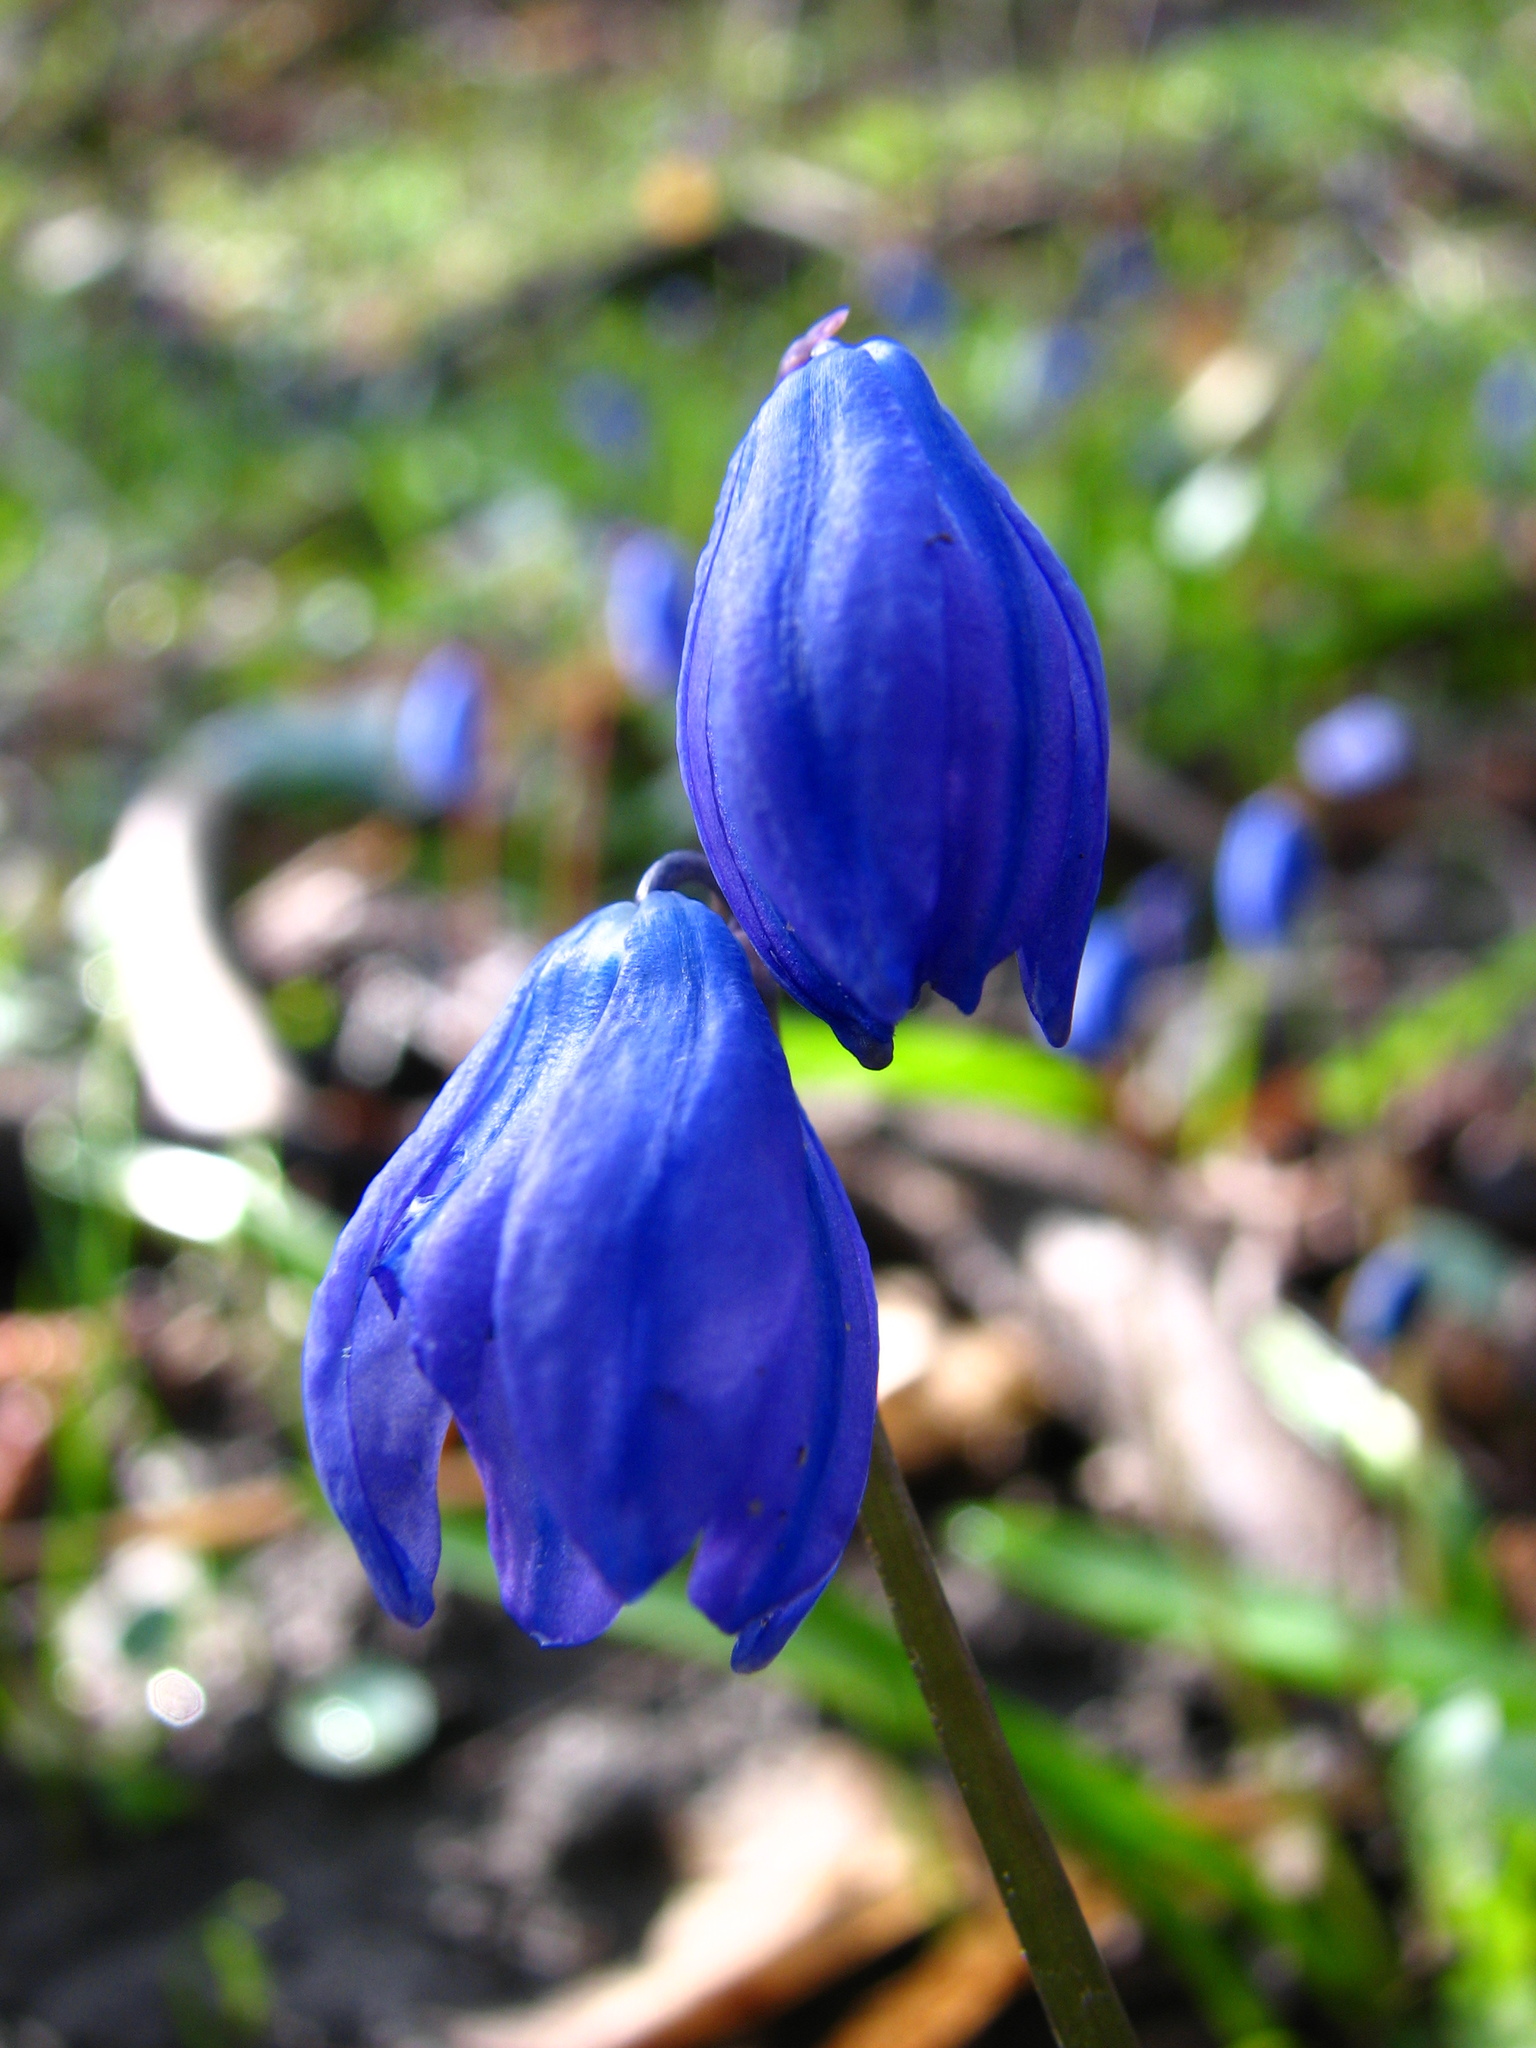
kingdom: Plantae
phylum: Tracheophyta
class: Liliopsida
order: Asparagales
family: Asparagaceae
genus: Scilla
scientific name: Scilla siberica
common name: Siberian squill
